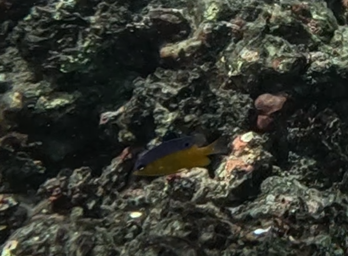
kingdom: Animalia
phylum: Chordata
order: Perciformes
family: Pomacentridae
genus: Stegastes
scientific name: Stegastes flavilatus
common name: Beaubrummel
